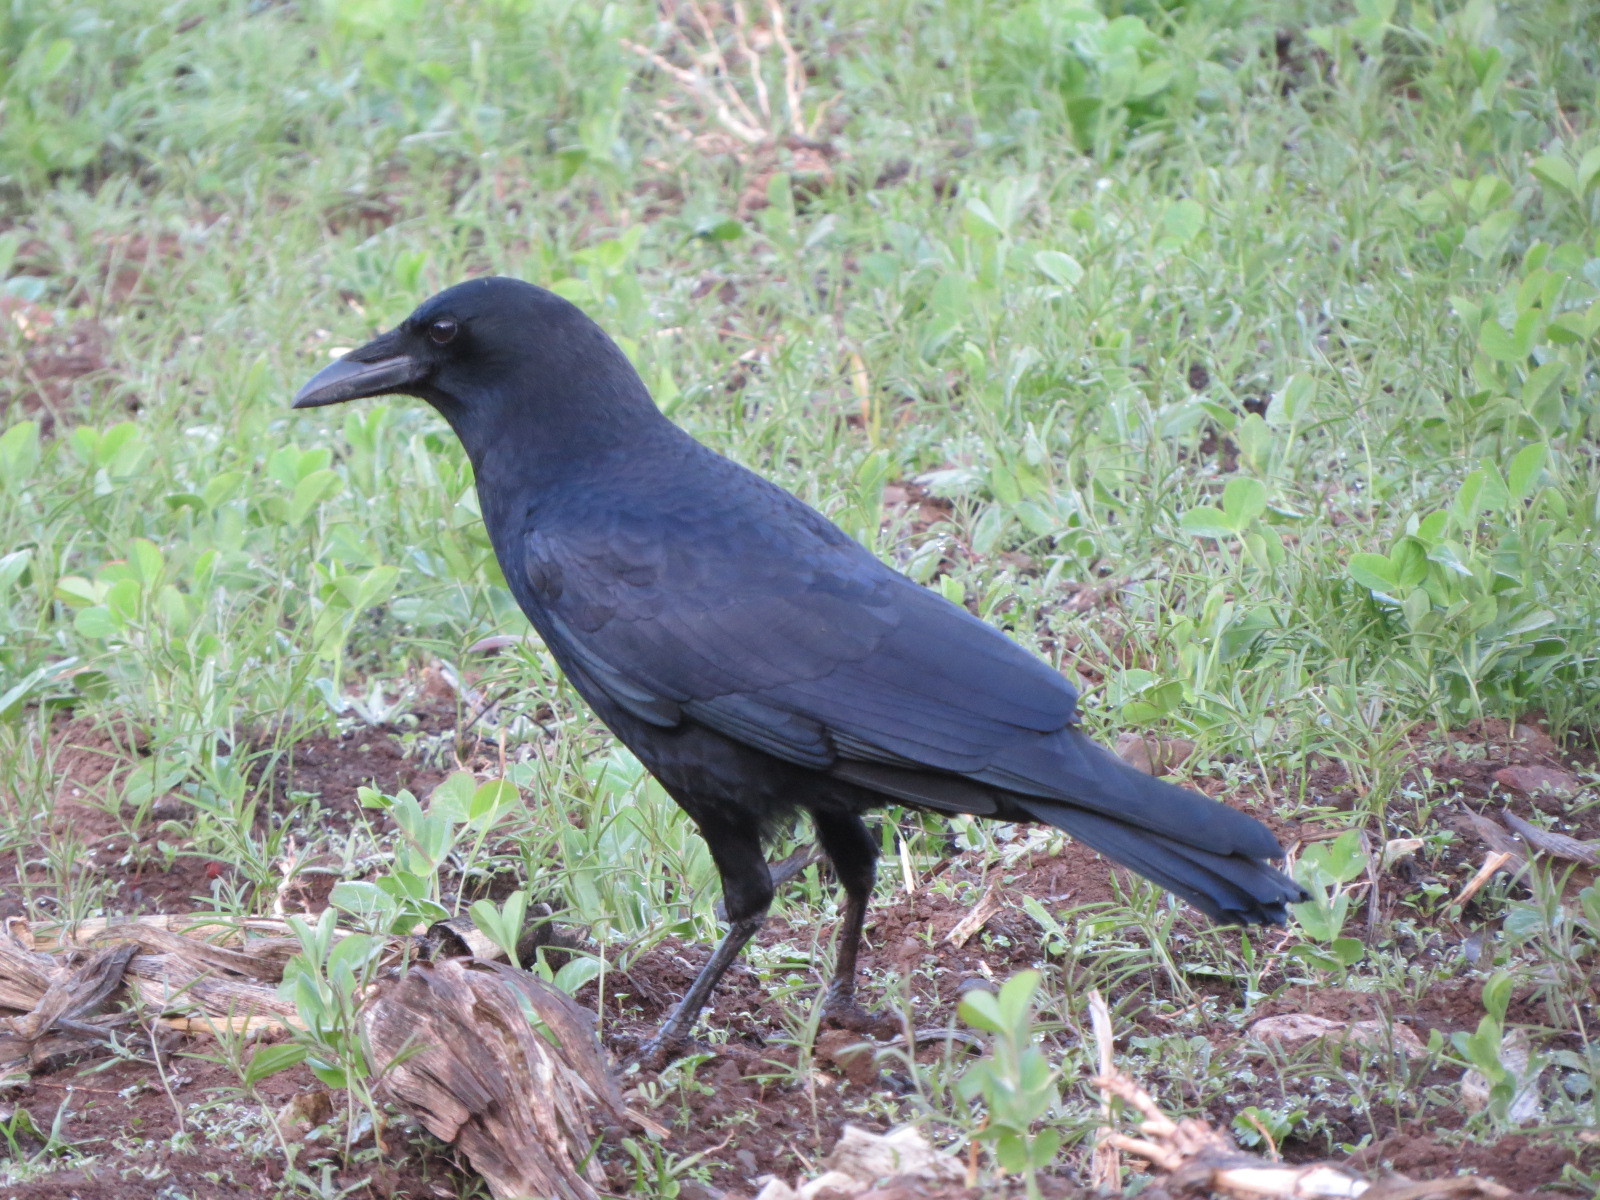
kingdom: Animalia
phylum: Chordata
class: Aves
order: Passeriformes
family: Corvidae
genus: Corvus
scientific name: Corvus brachyrhynchos
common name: American crow
